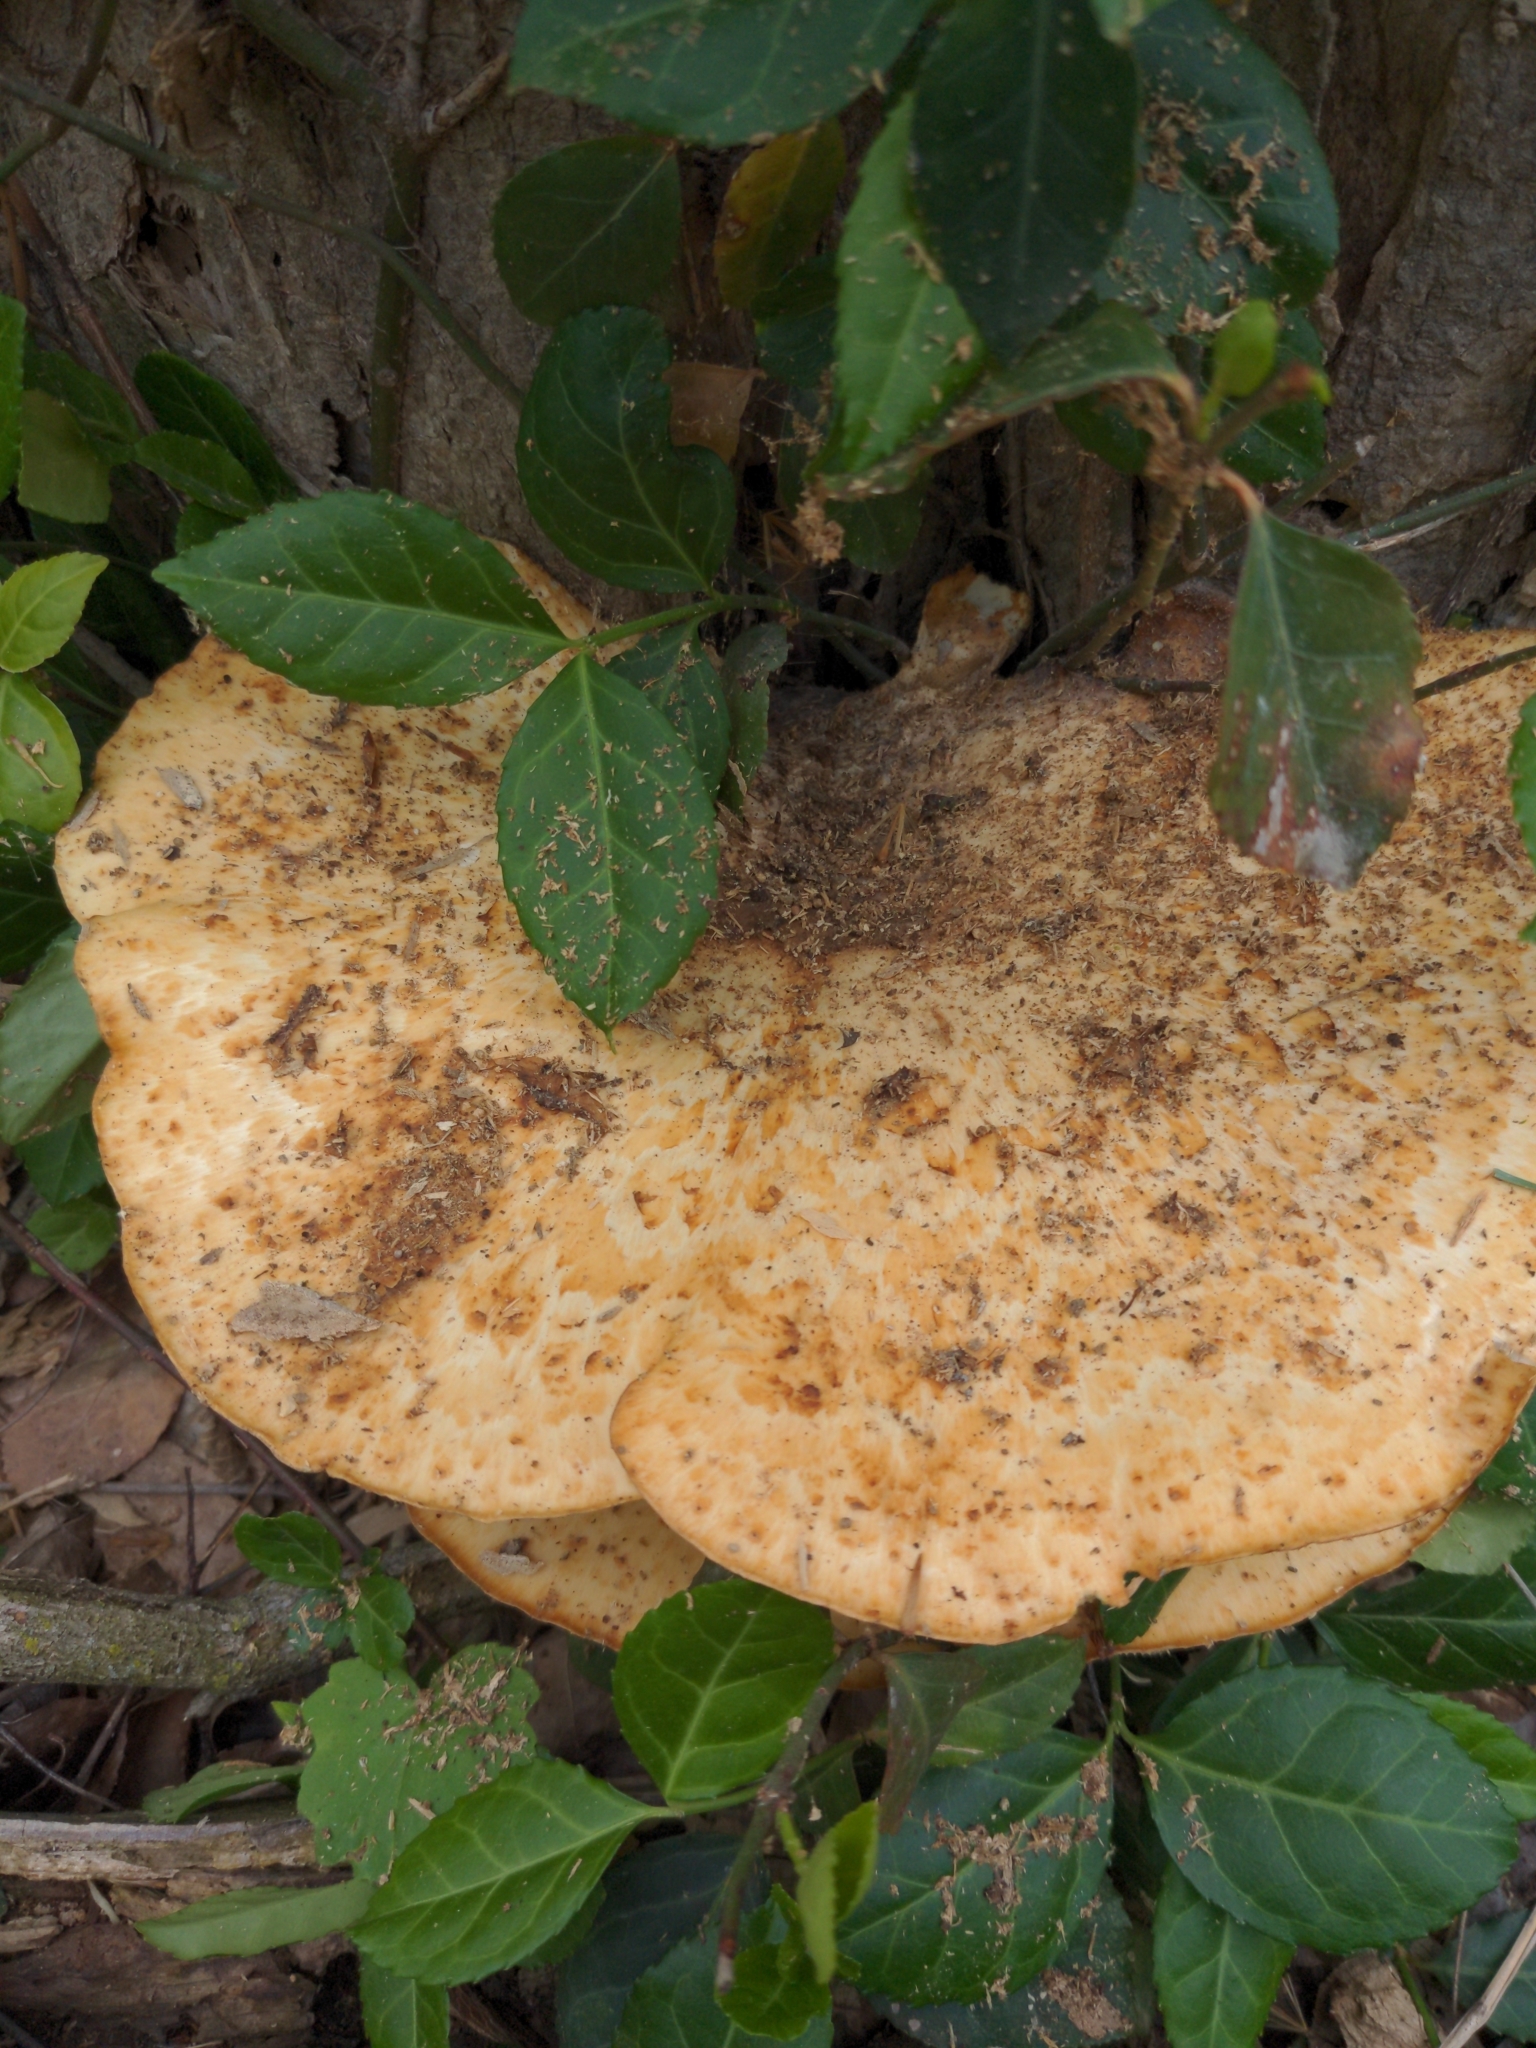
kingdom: Fungi
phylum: Basidiomycota
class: Agaricomycetes
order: Polyporales
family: Polyporaceae
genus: Cerioporus
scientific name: Cerioporus squamosus
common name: Dryad's saddle
